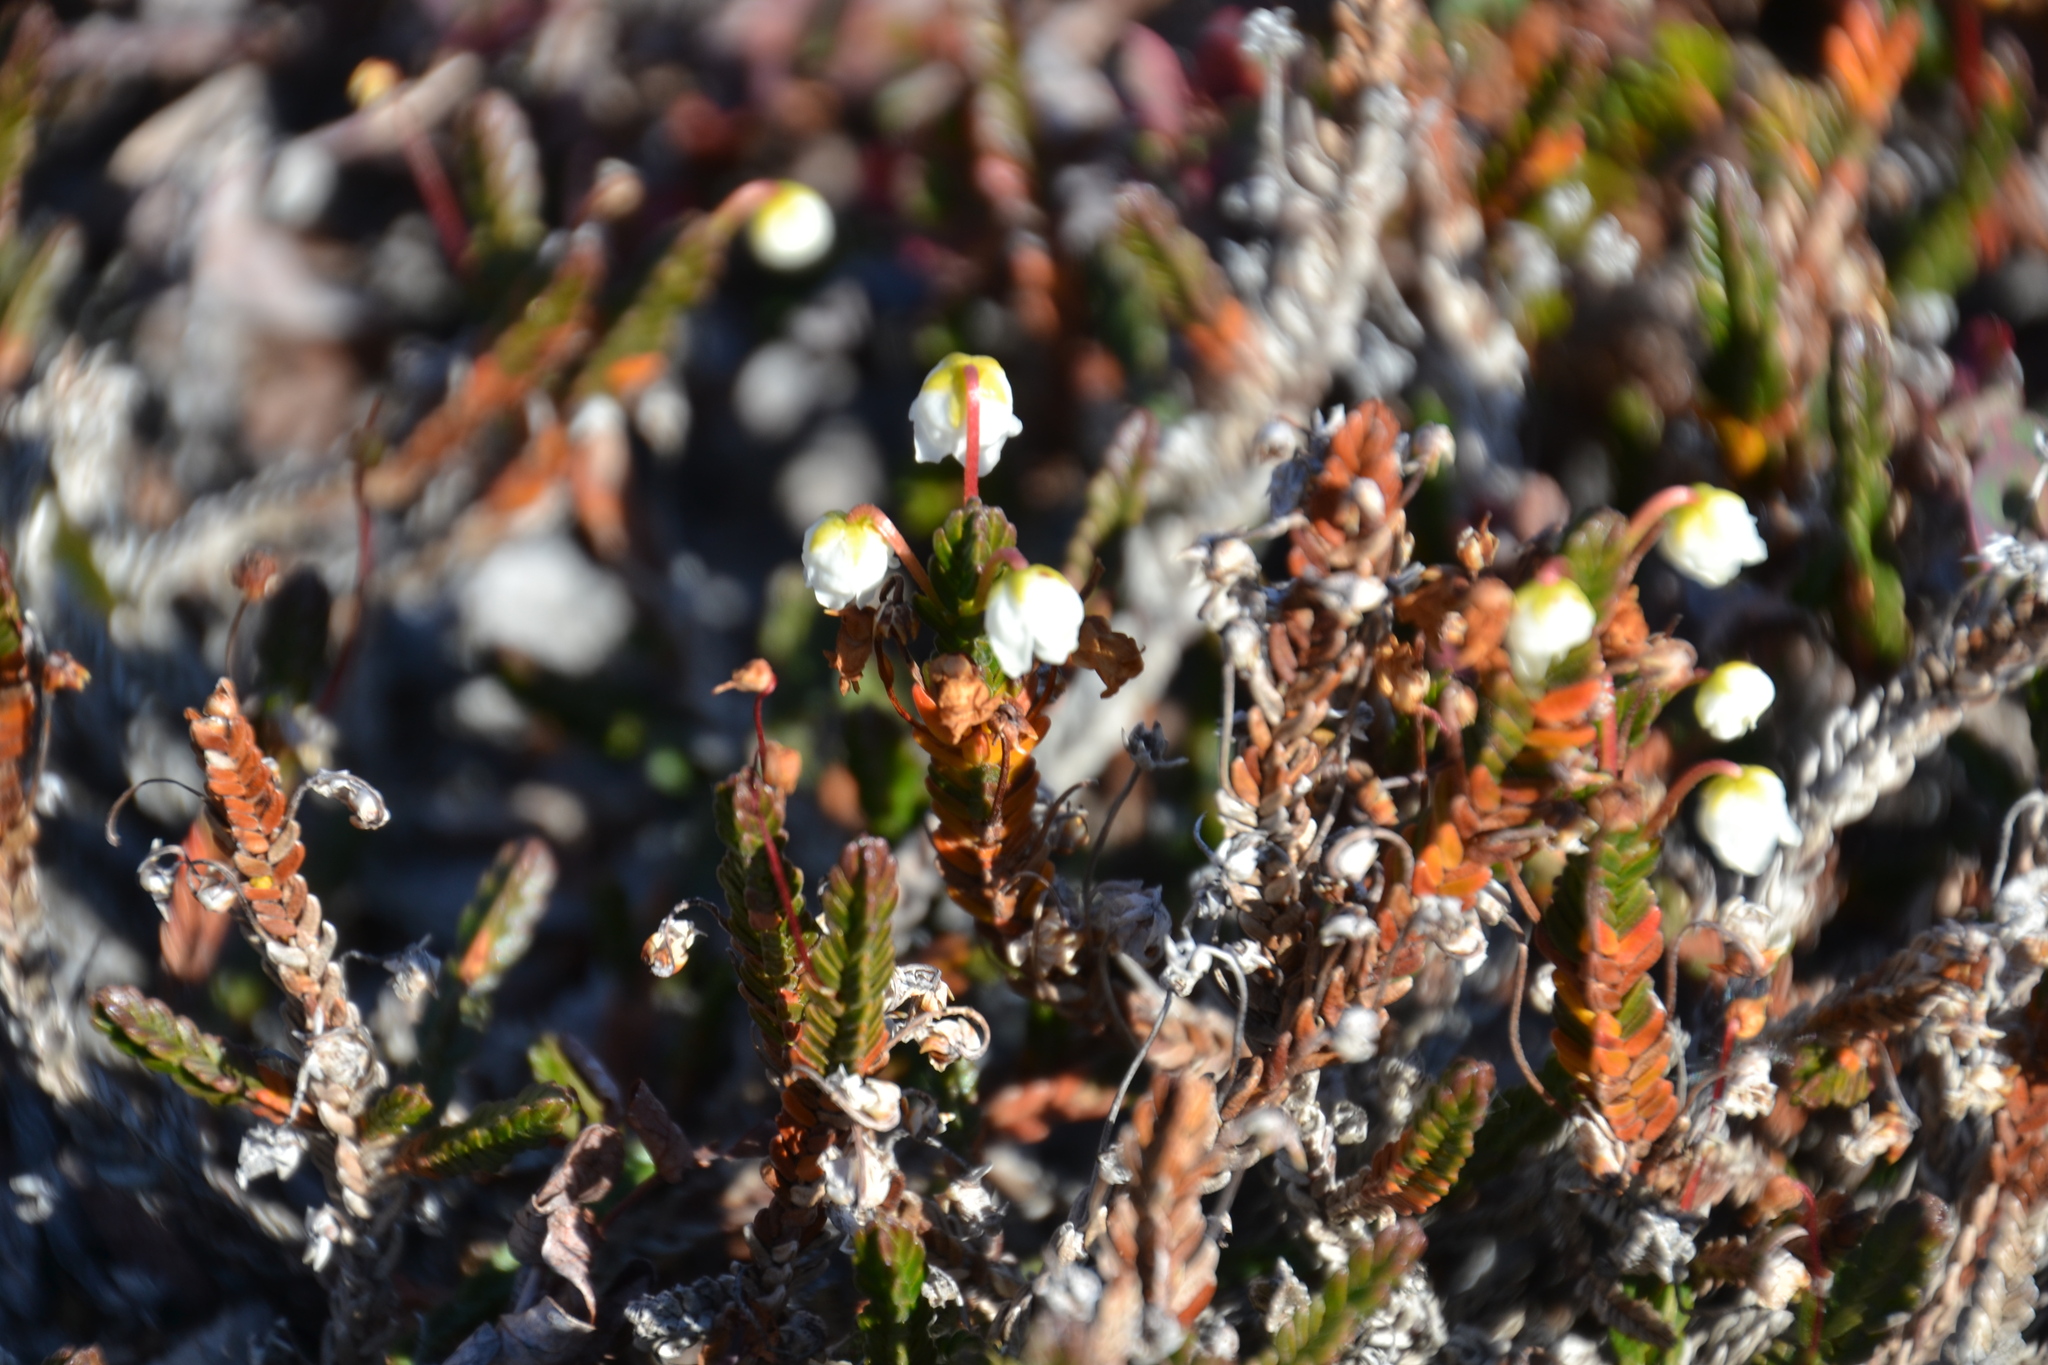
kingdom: Plantae
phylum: Tracheophyta
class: Magnoliopsida
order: Ericales
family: Ericaceae
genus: Cassiope
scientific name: Cassiope tetragona
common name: Arctic bell heather
